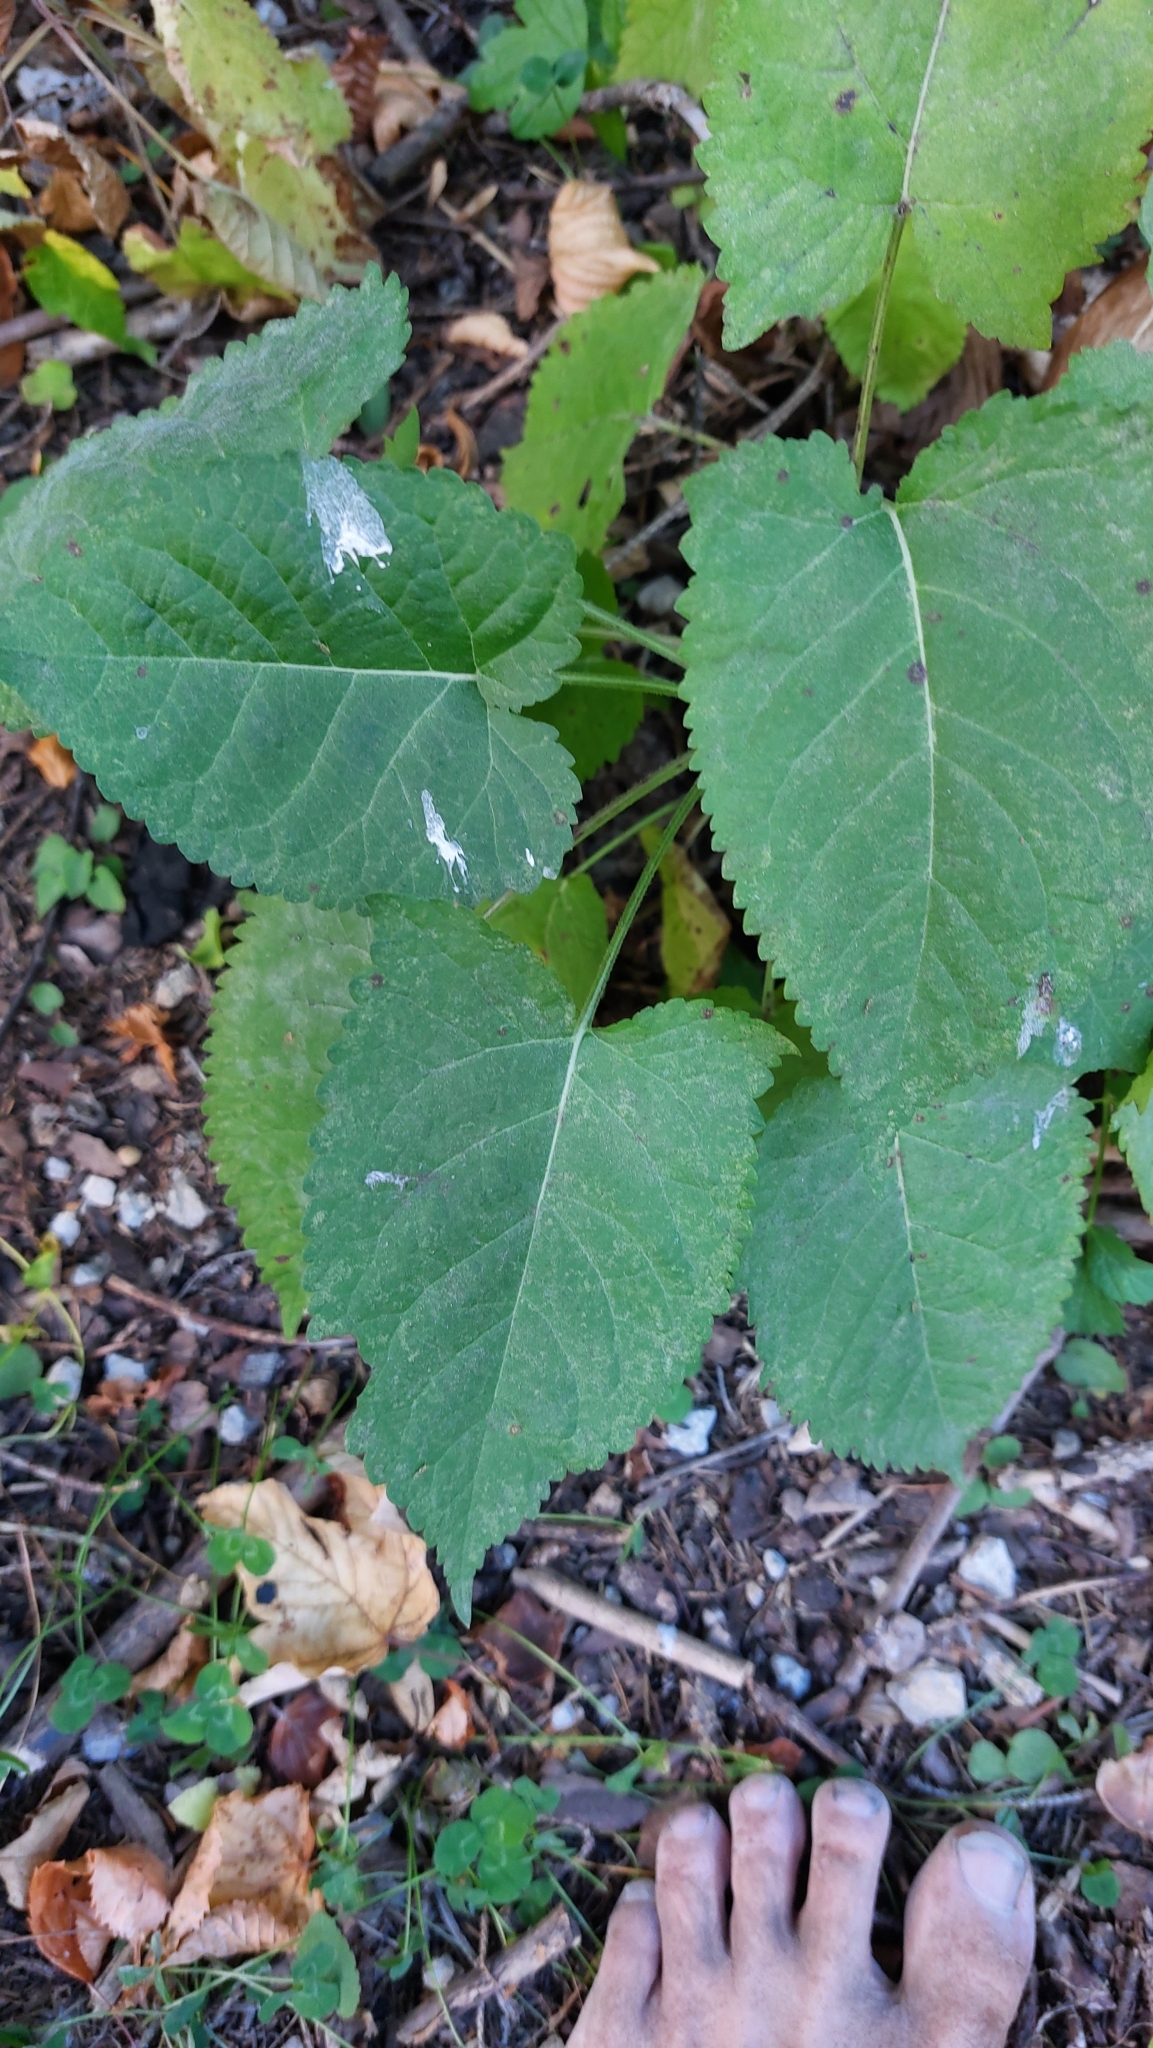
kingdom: Plantae
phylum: Tracheophyta
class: Magnoliopsida
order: Lamiales
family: Lamiaceae
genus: Salvia
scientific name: Salvia glutinosa
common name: Sticky clary
